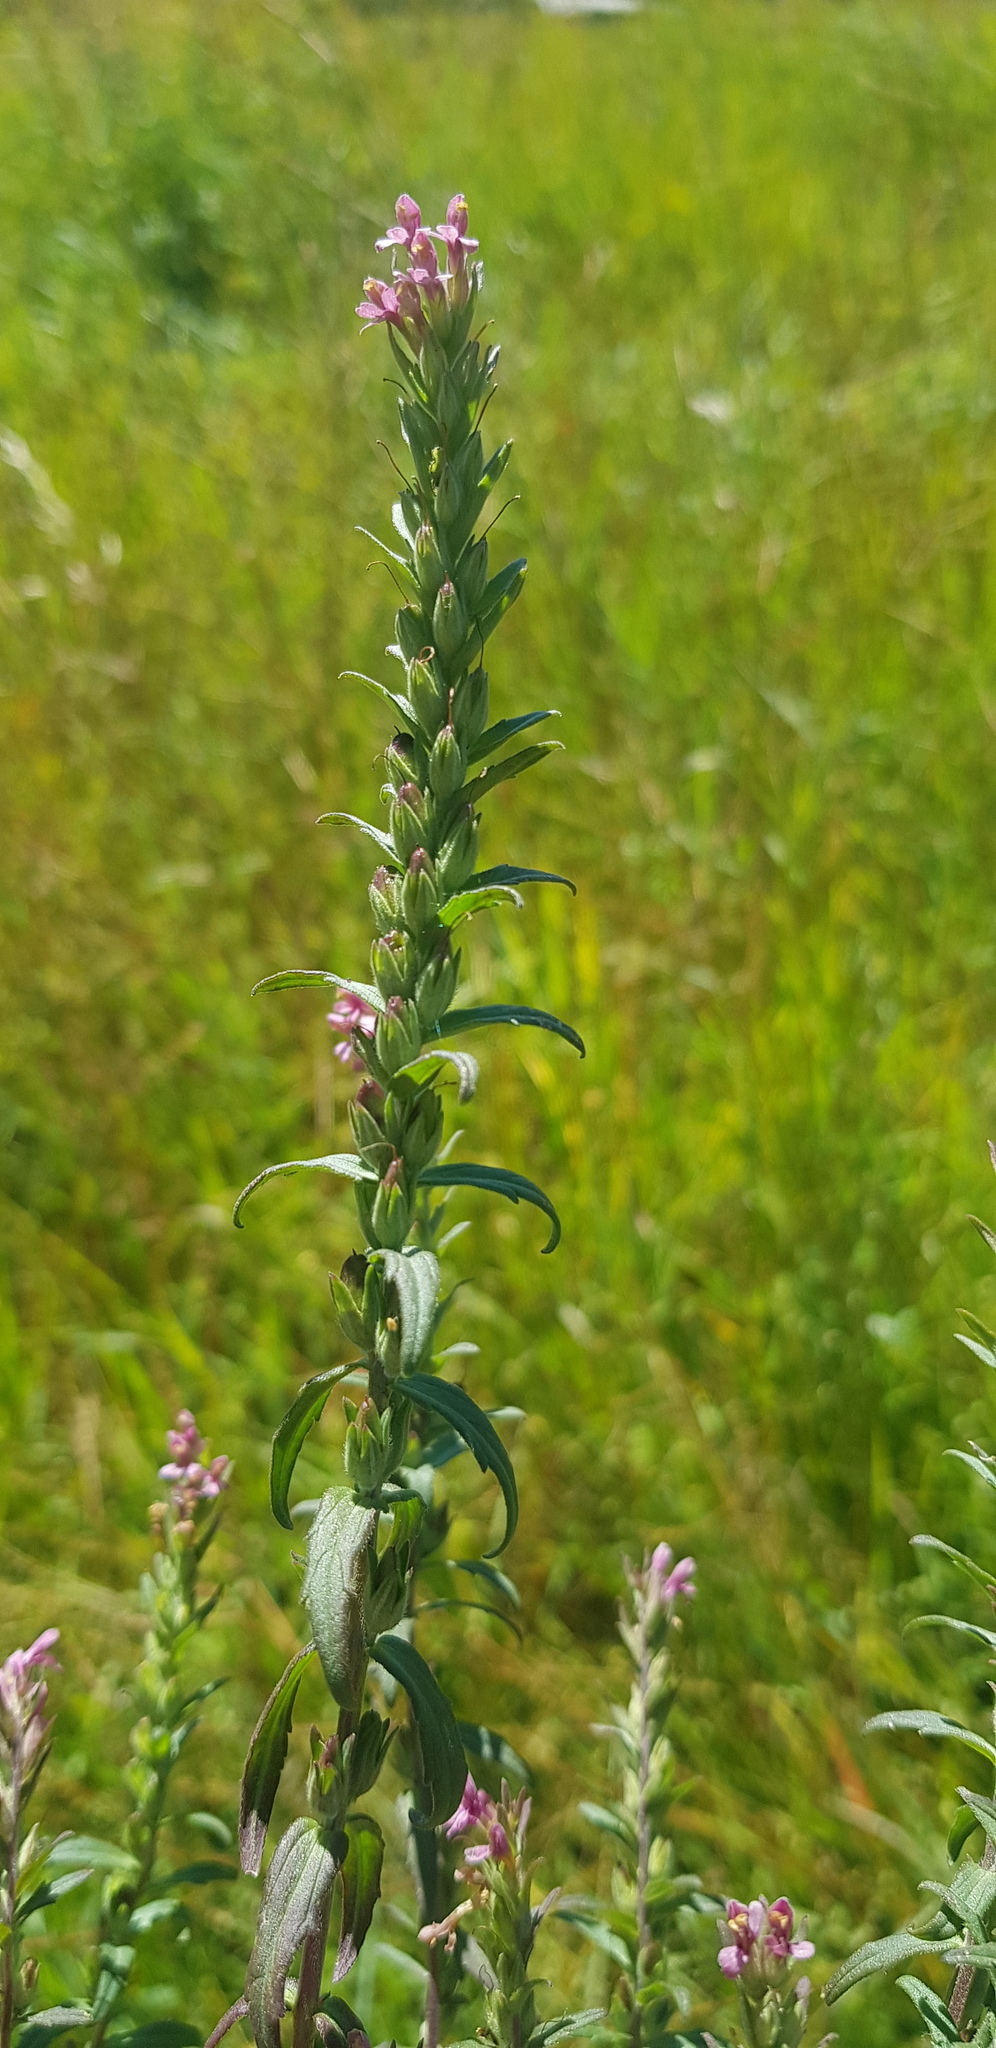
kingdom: Plantae
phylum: Tracheophyta
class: Magnoliopsida
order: Lamiales
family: Orobanchaceae
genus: Odontites
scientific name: Odontites vulgaris
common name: Broomrape
